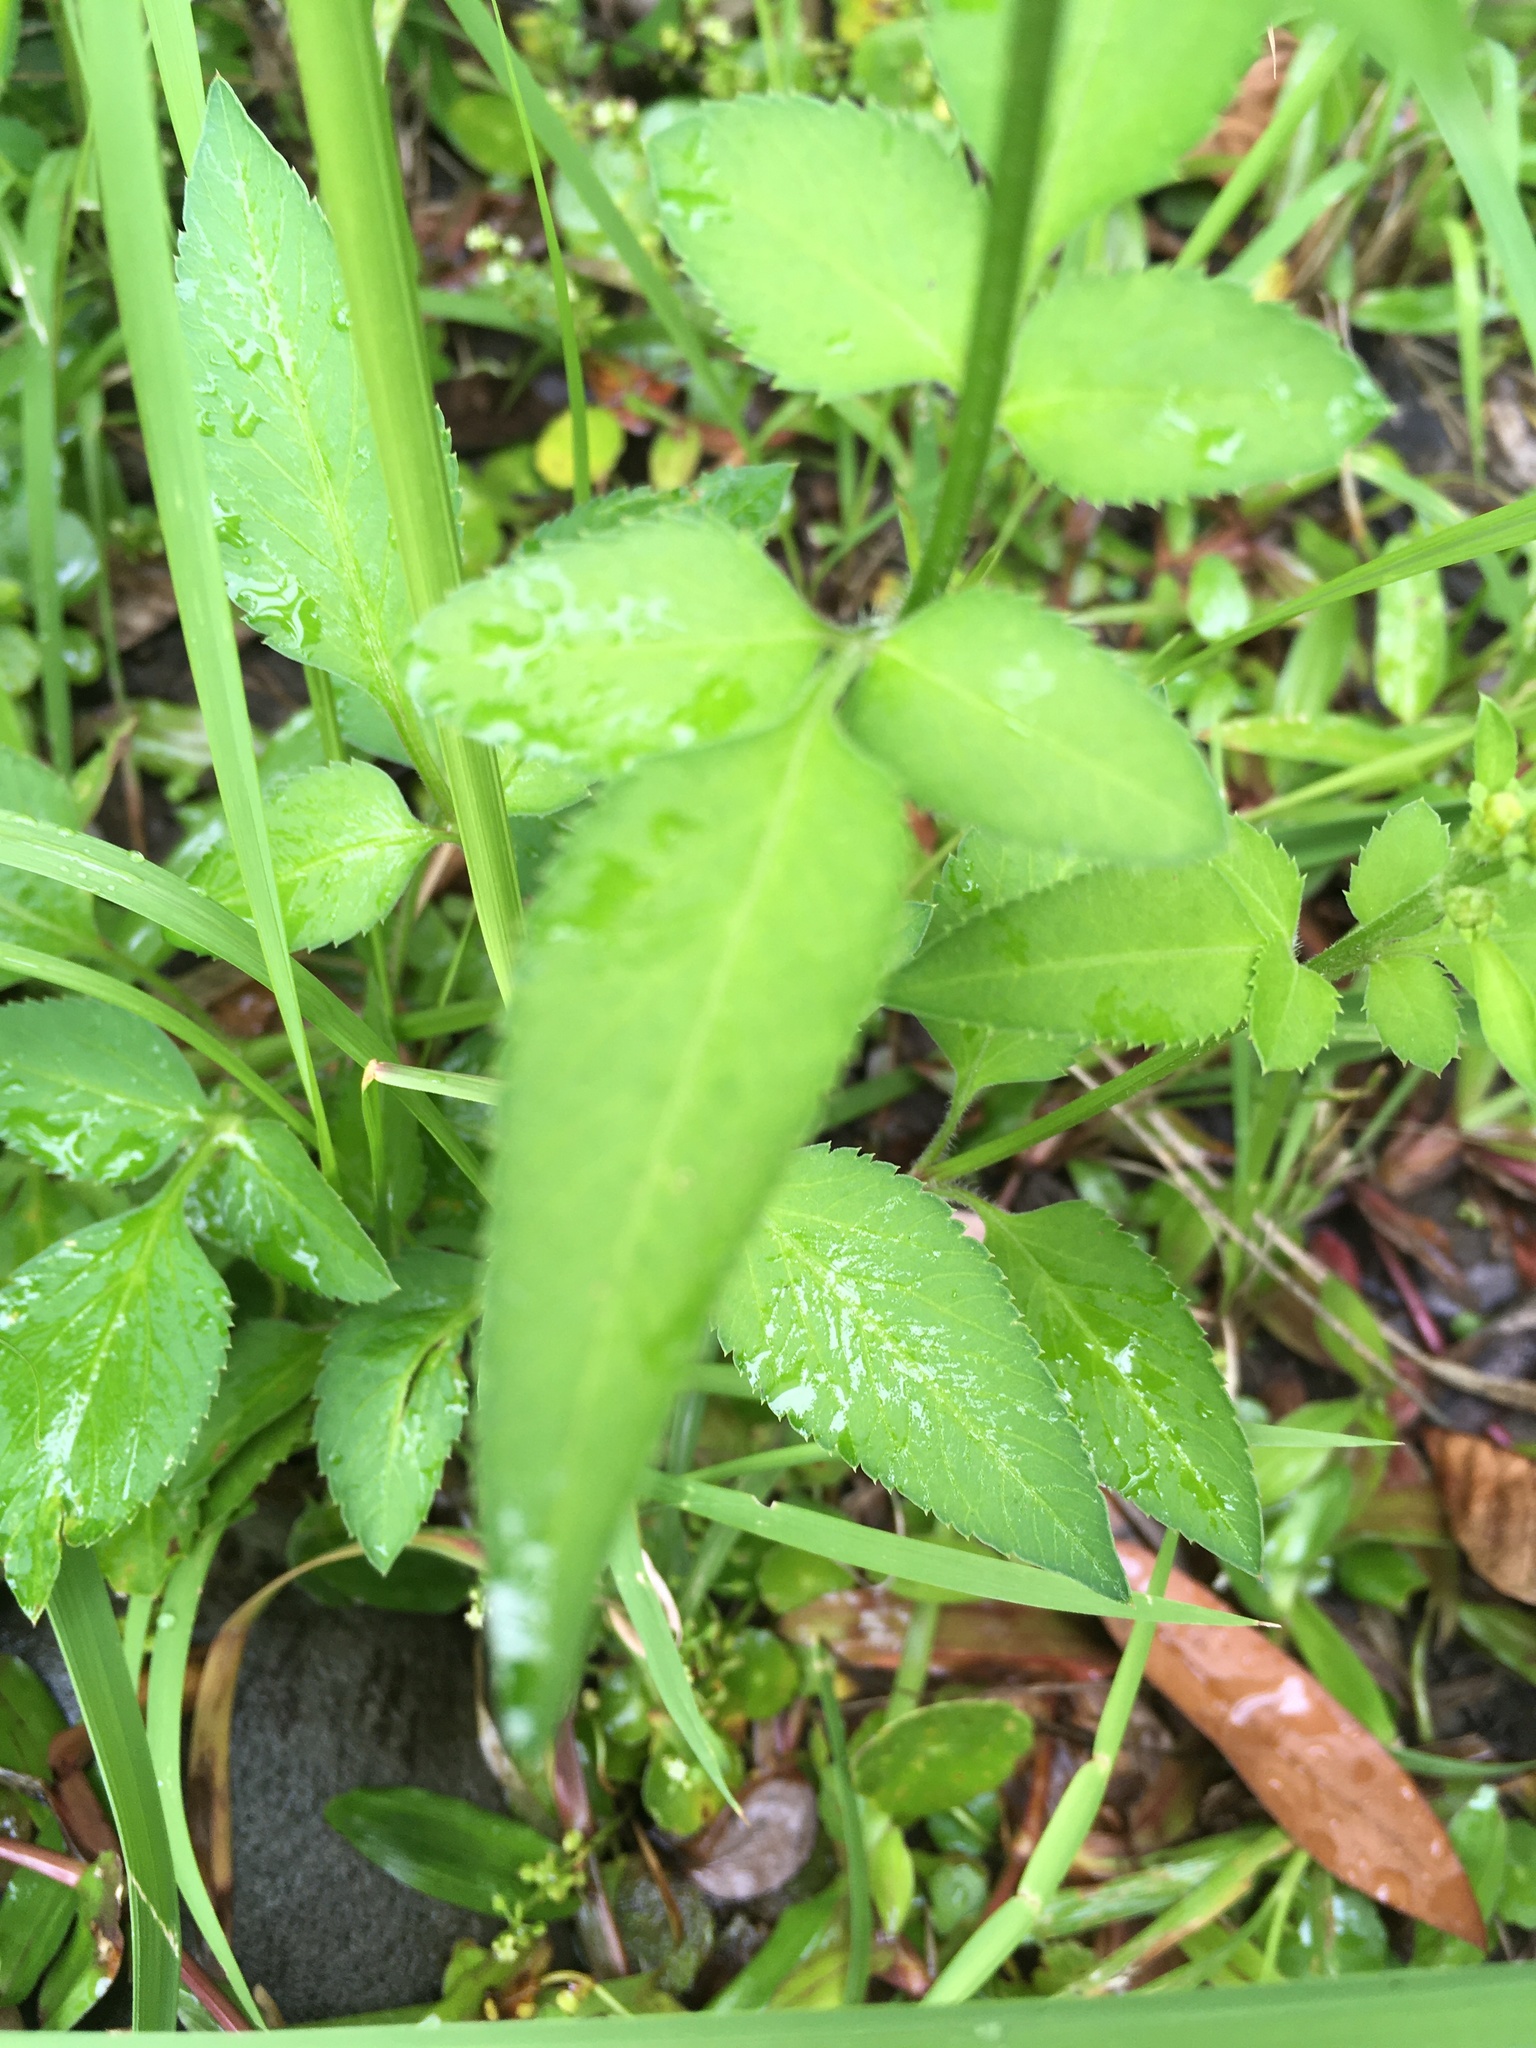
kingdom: Plantae
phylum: Tracheophyta
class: Magnoliopsida
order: Asterales
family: Asteraceae
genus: Bidens
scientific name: Bidens alba
